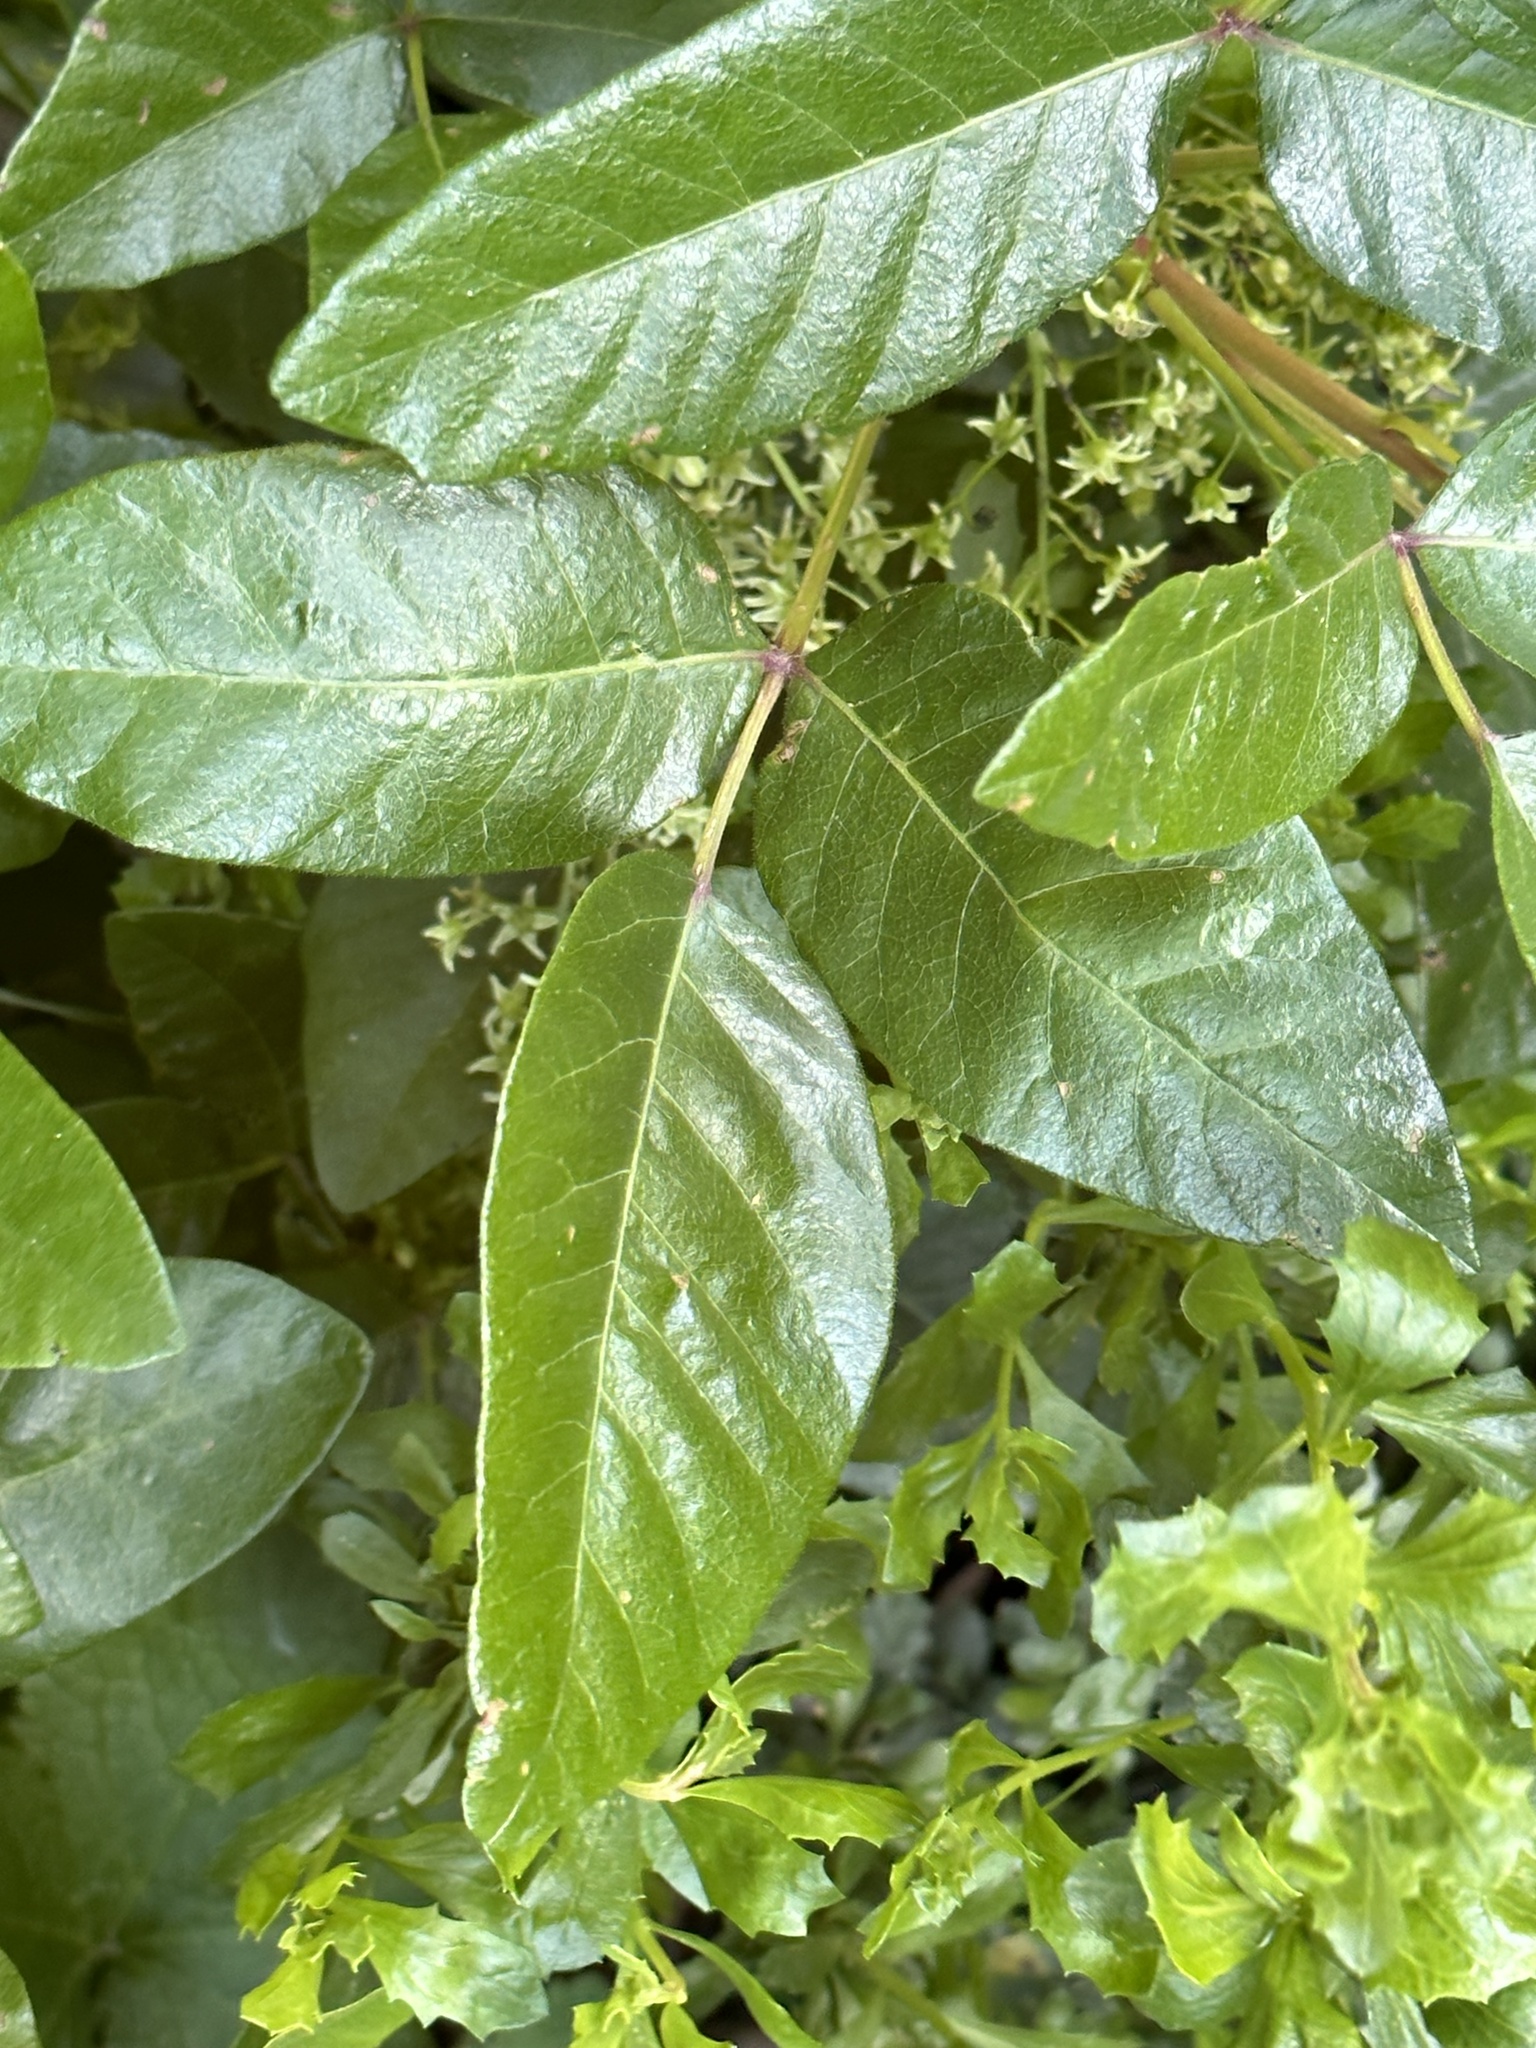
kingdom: Plantae
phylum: Tracheophyta
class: Magnoliopsida
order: Sapindales
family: Anacardiaceae
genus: Toxicodendron
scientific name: Toxicodendron diversilobum
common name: Pacific poison-oak
